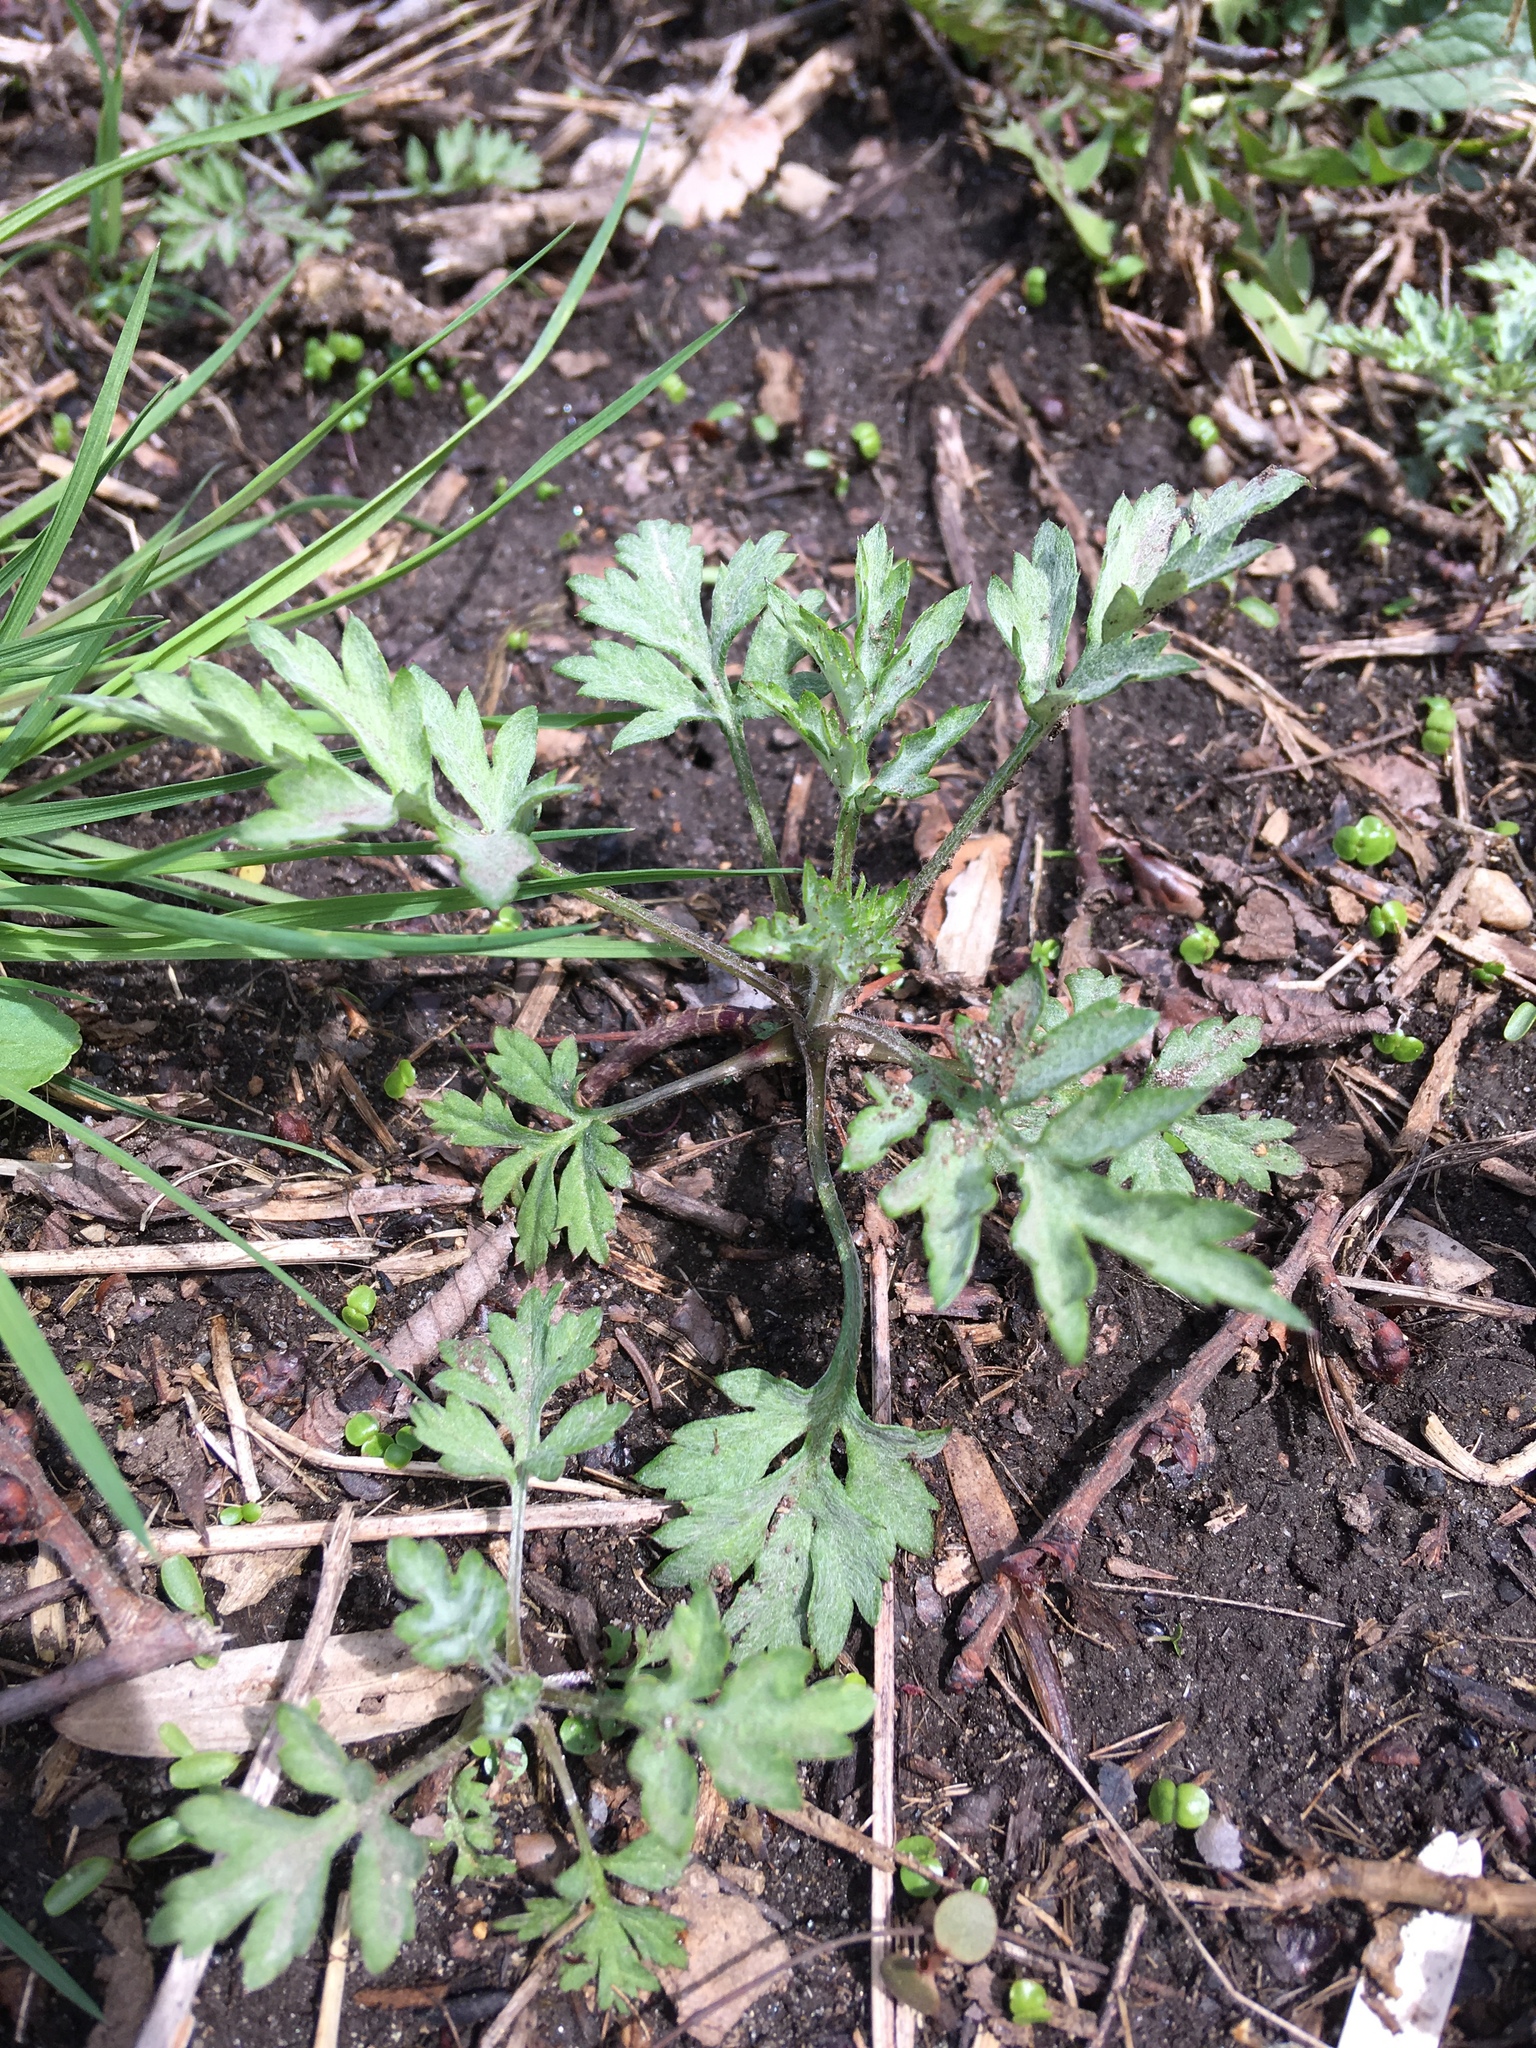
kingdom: Plantae
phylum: Tracheophyta
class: Magnoliopsida
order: Asterales
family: Asteraceae
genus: Artemisia
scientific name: Artemisia vulgaris
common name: Mugwort
